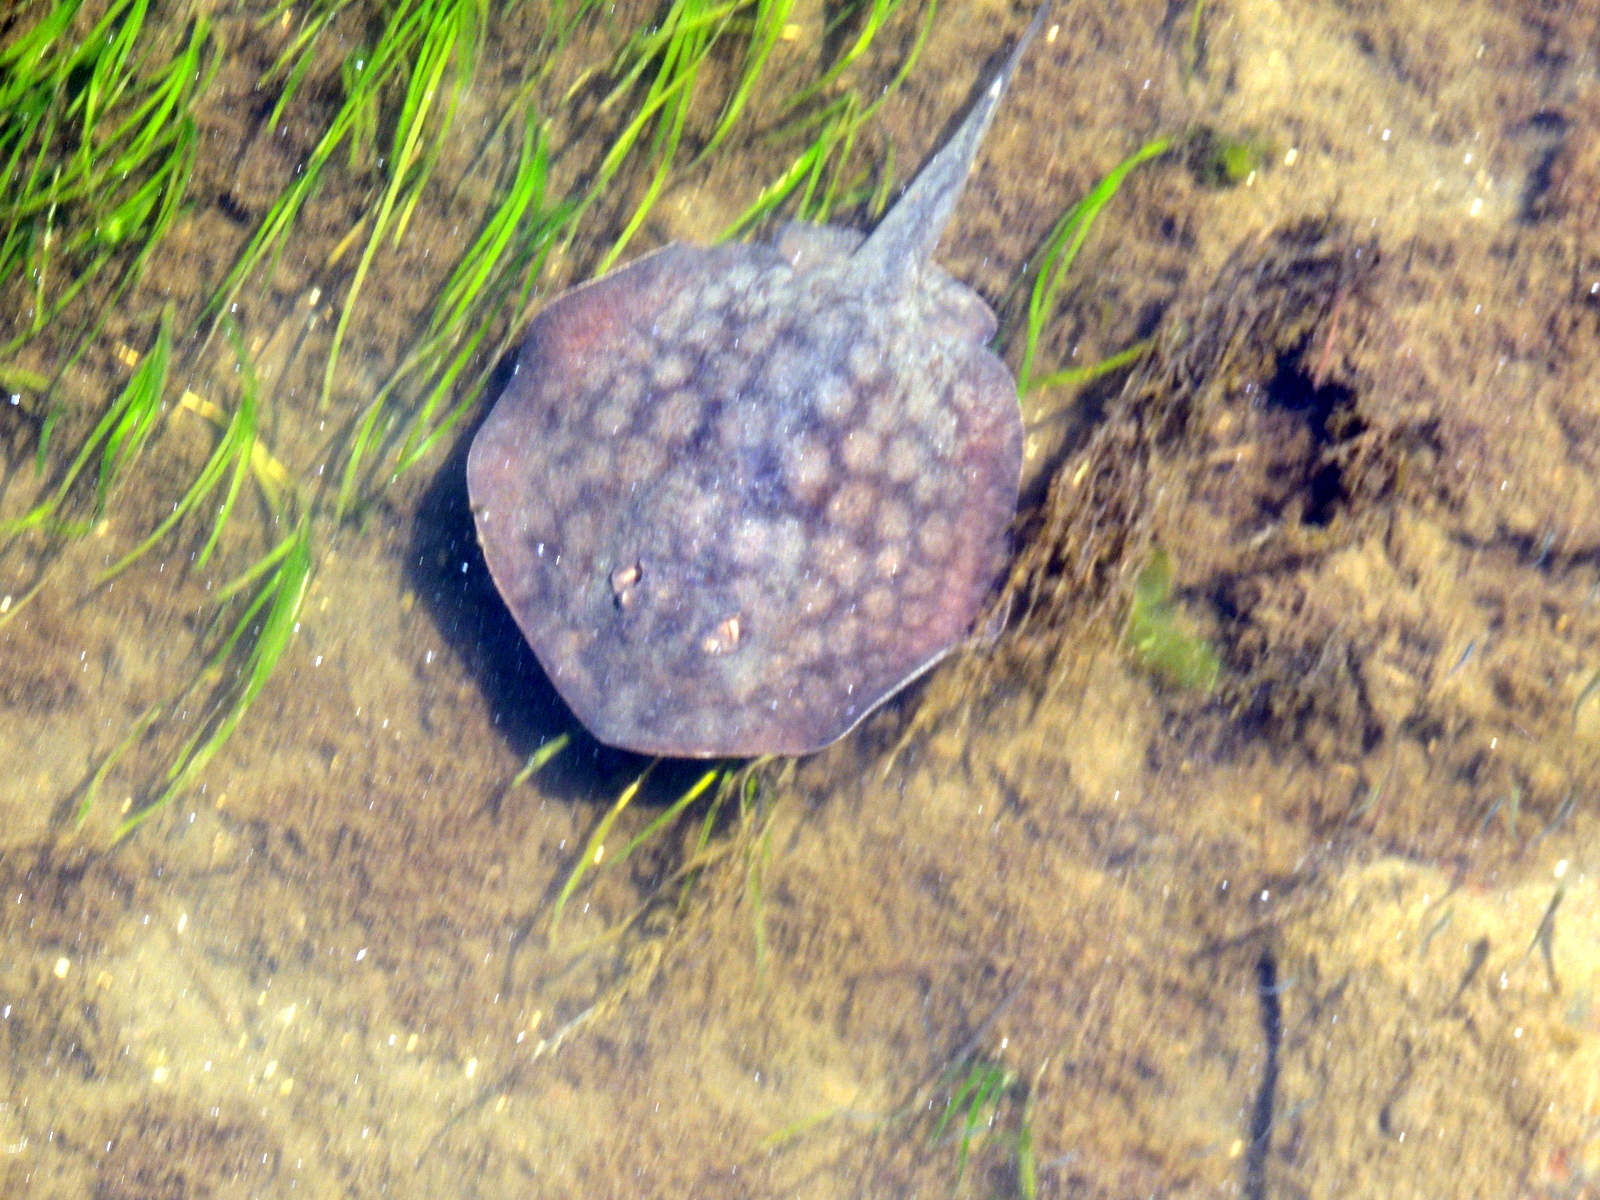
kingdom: Animalia
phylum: Chordata
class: Elasmobranchii
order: Myliobatiformes
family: Urolophidae
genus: Urolophus
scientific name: Urolophus halleri
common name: Round stingray
